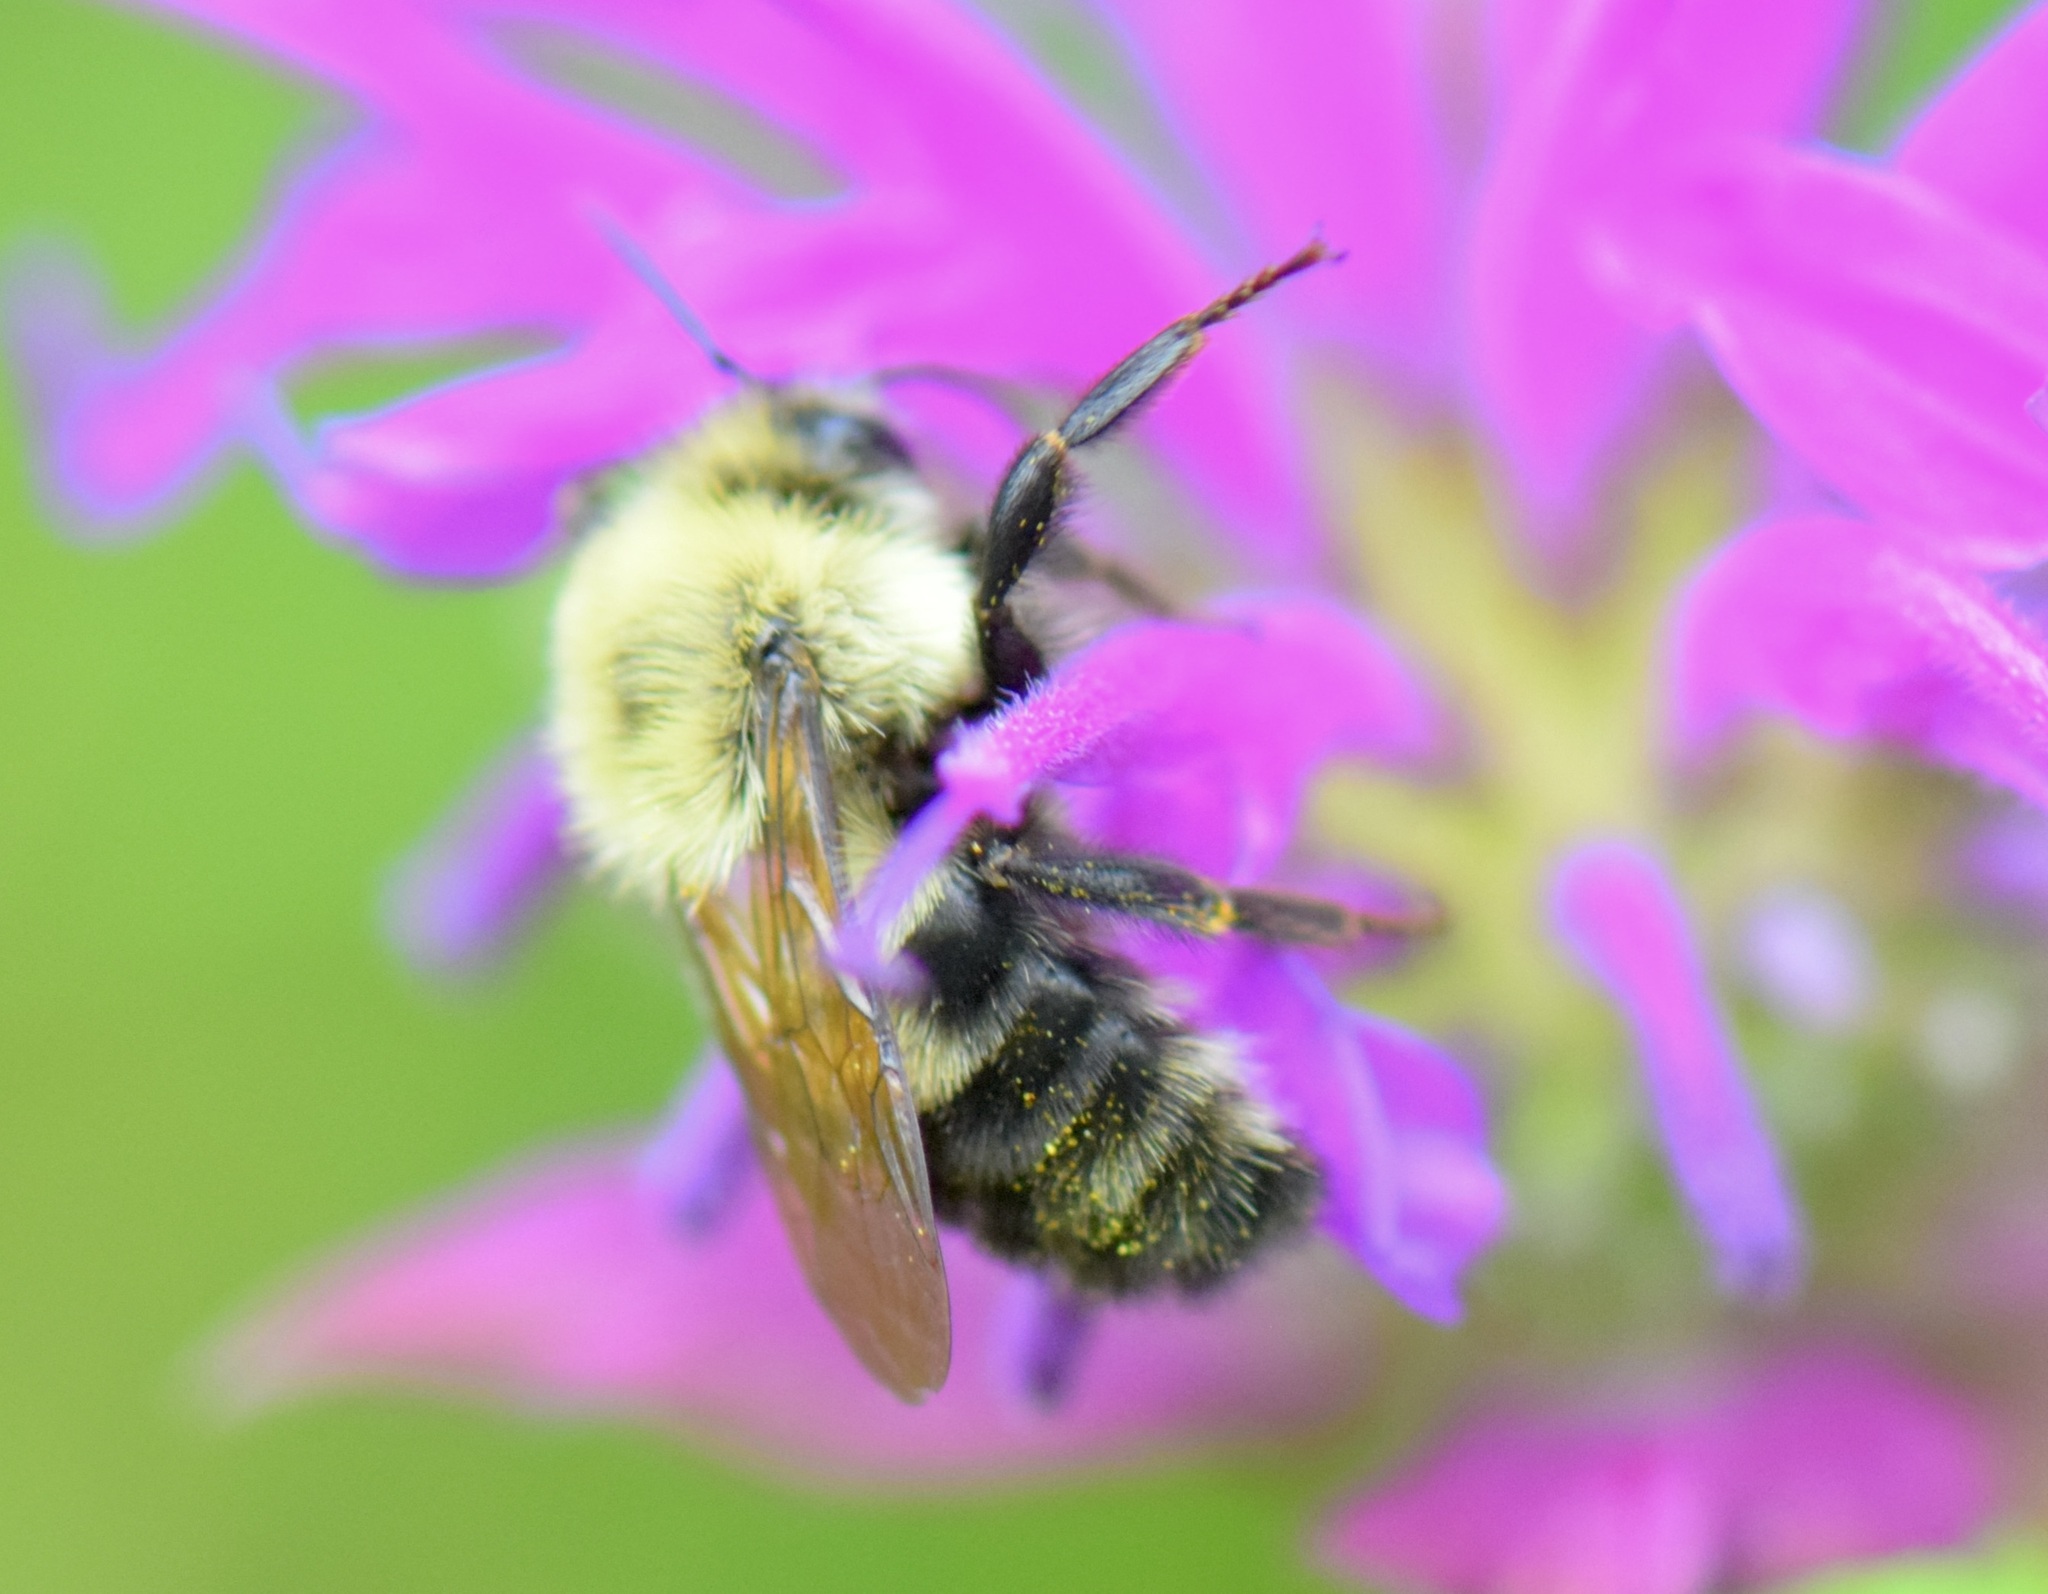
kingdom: Animalia
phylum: Arthropoda
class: Insecta
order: Hymenoptera
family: Apidae
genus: Bombus
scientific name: Bombus bimaculatus
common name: Two-spotted bumble bee
